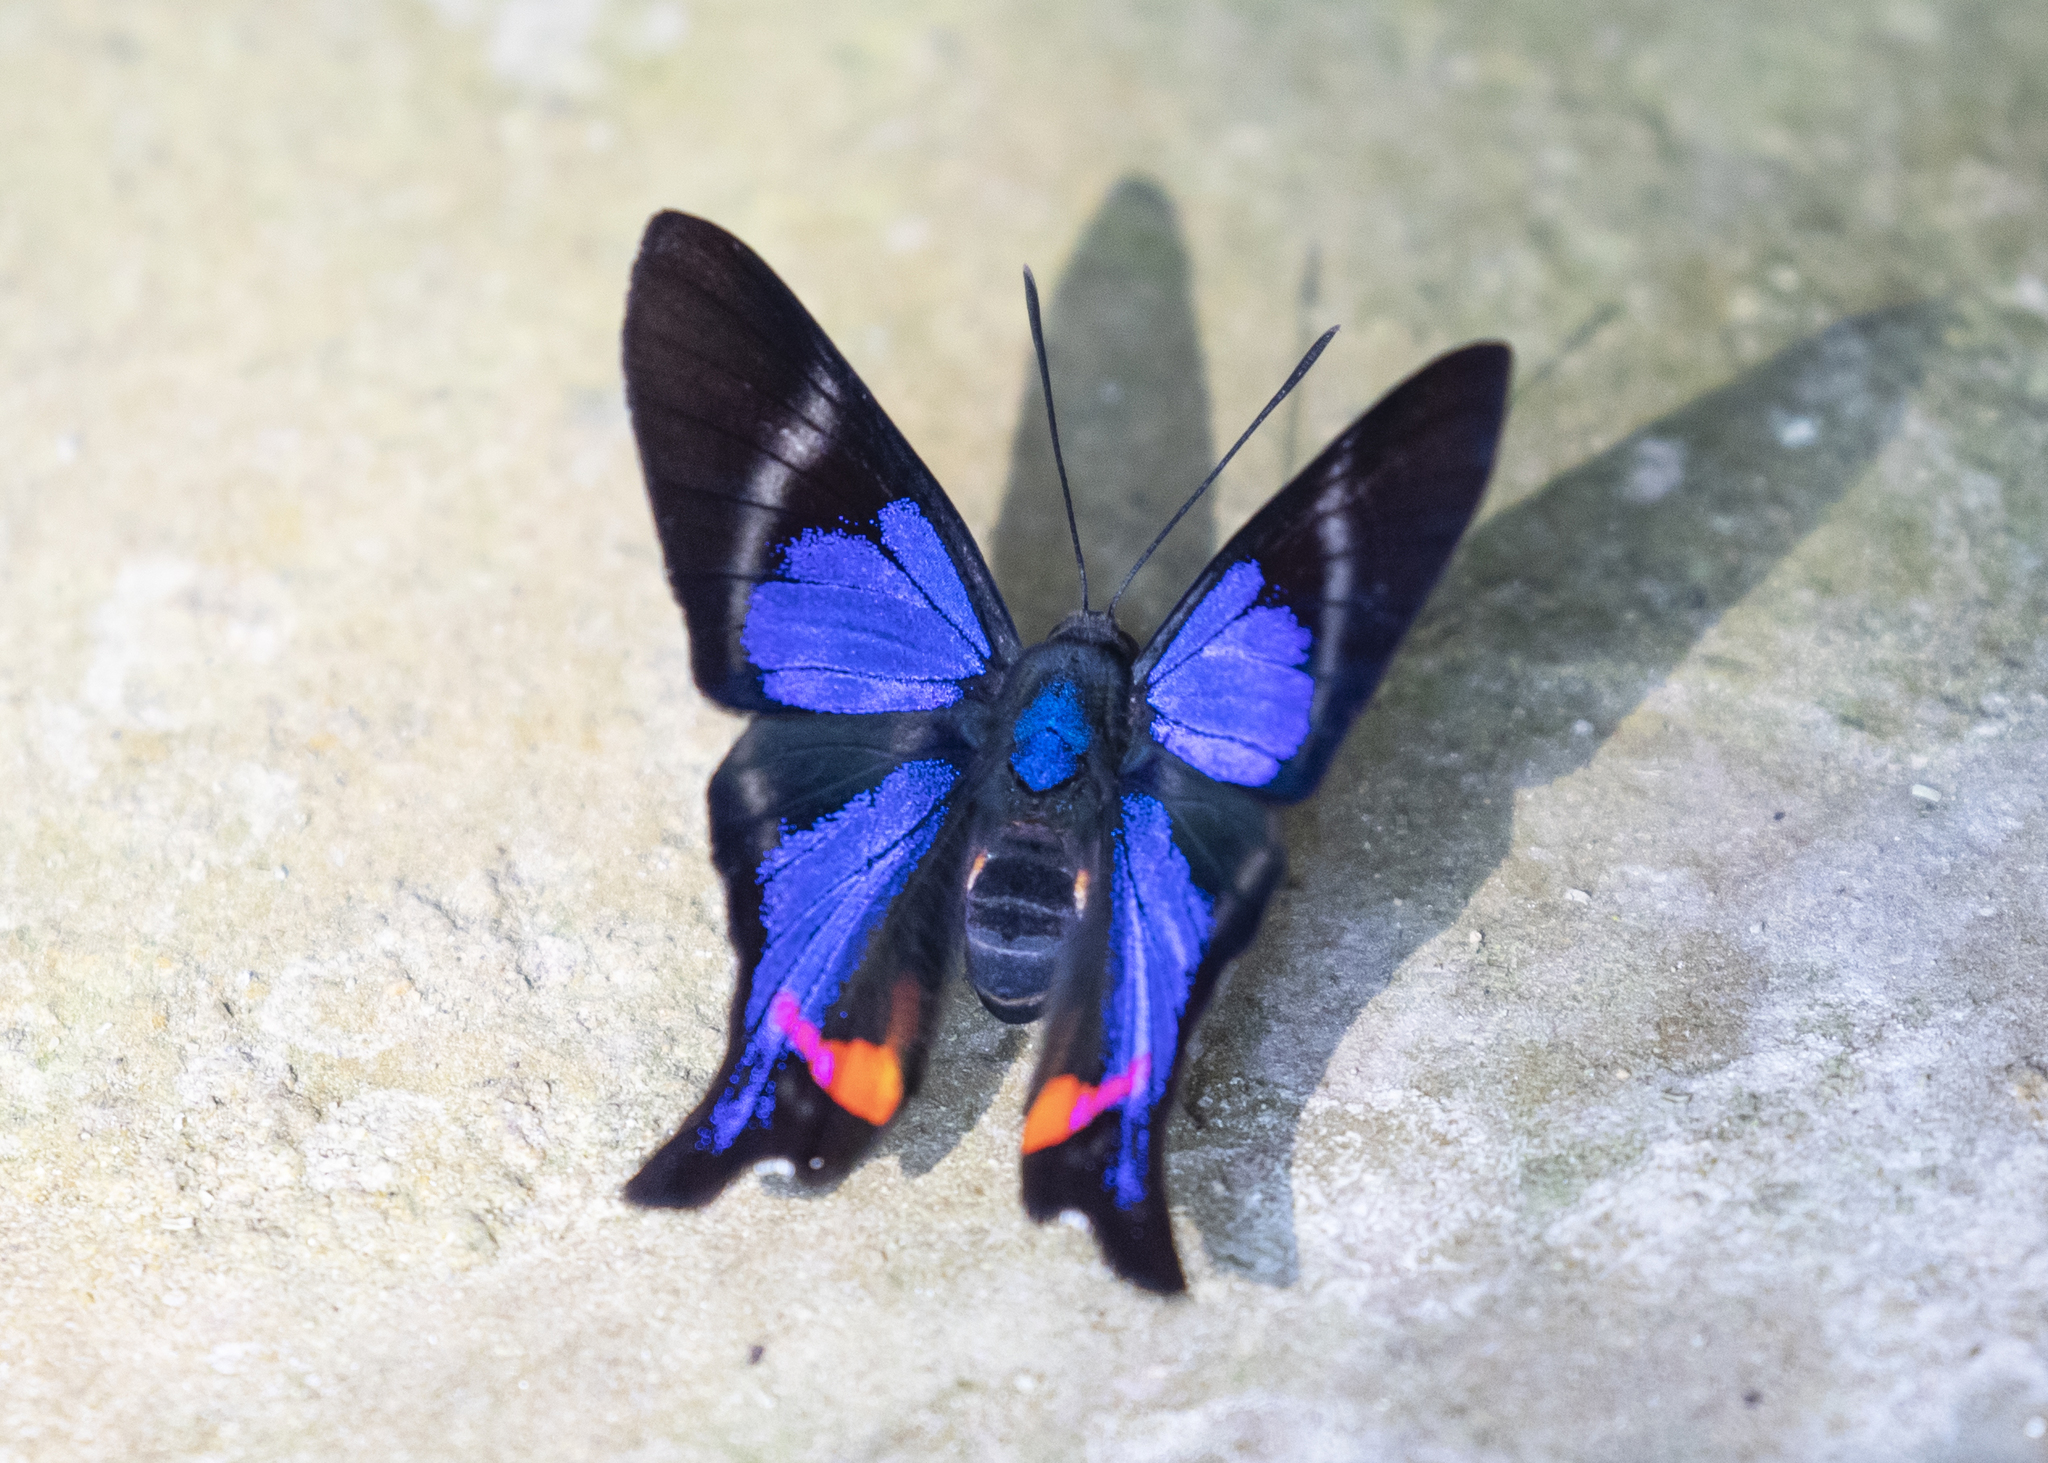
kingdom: Animalia
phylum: Arthropoda
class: Insecta
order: Lepidoptera
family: Riodinidae
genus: Rhetus
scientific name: Rhetus periander
